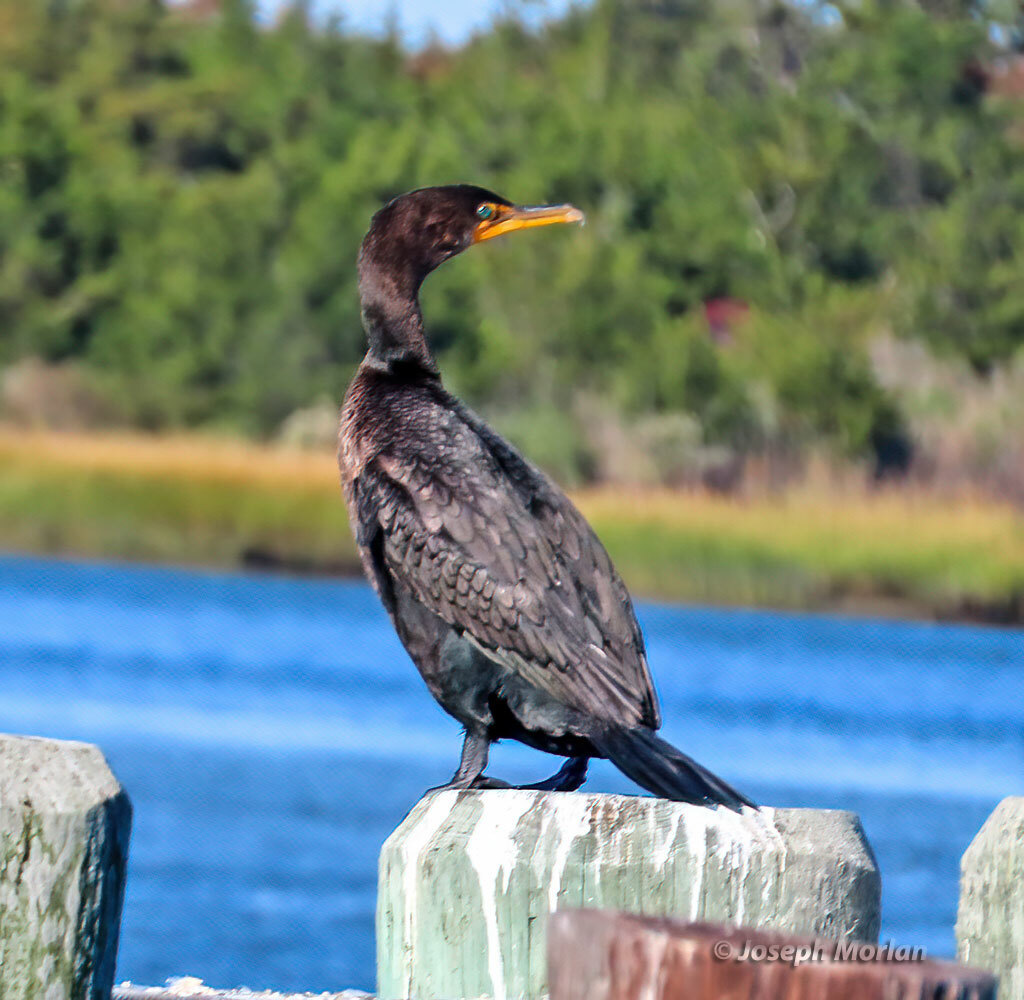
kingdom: Animalia
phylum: Chordata
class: Aves
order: Suliformes
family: Phalacrocoracidae
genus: Phalacrocorax
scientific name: Phalacrocorax auritus
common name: Double-crested cormorant
